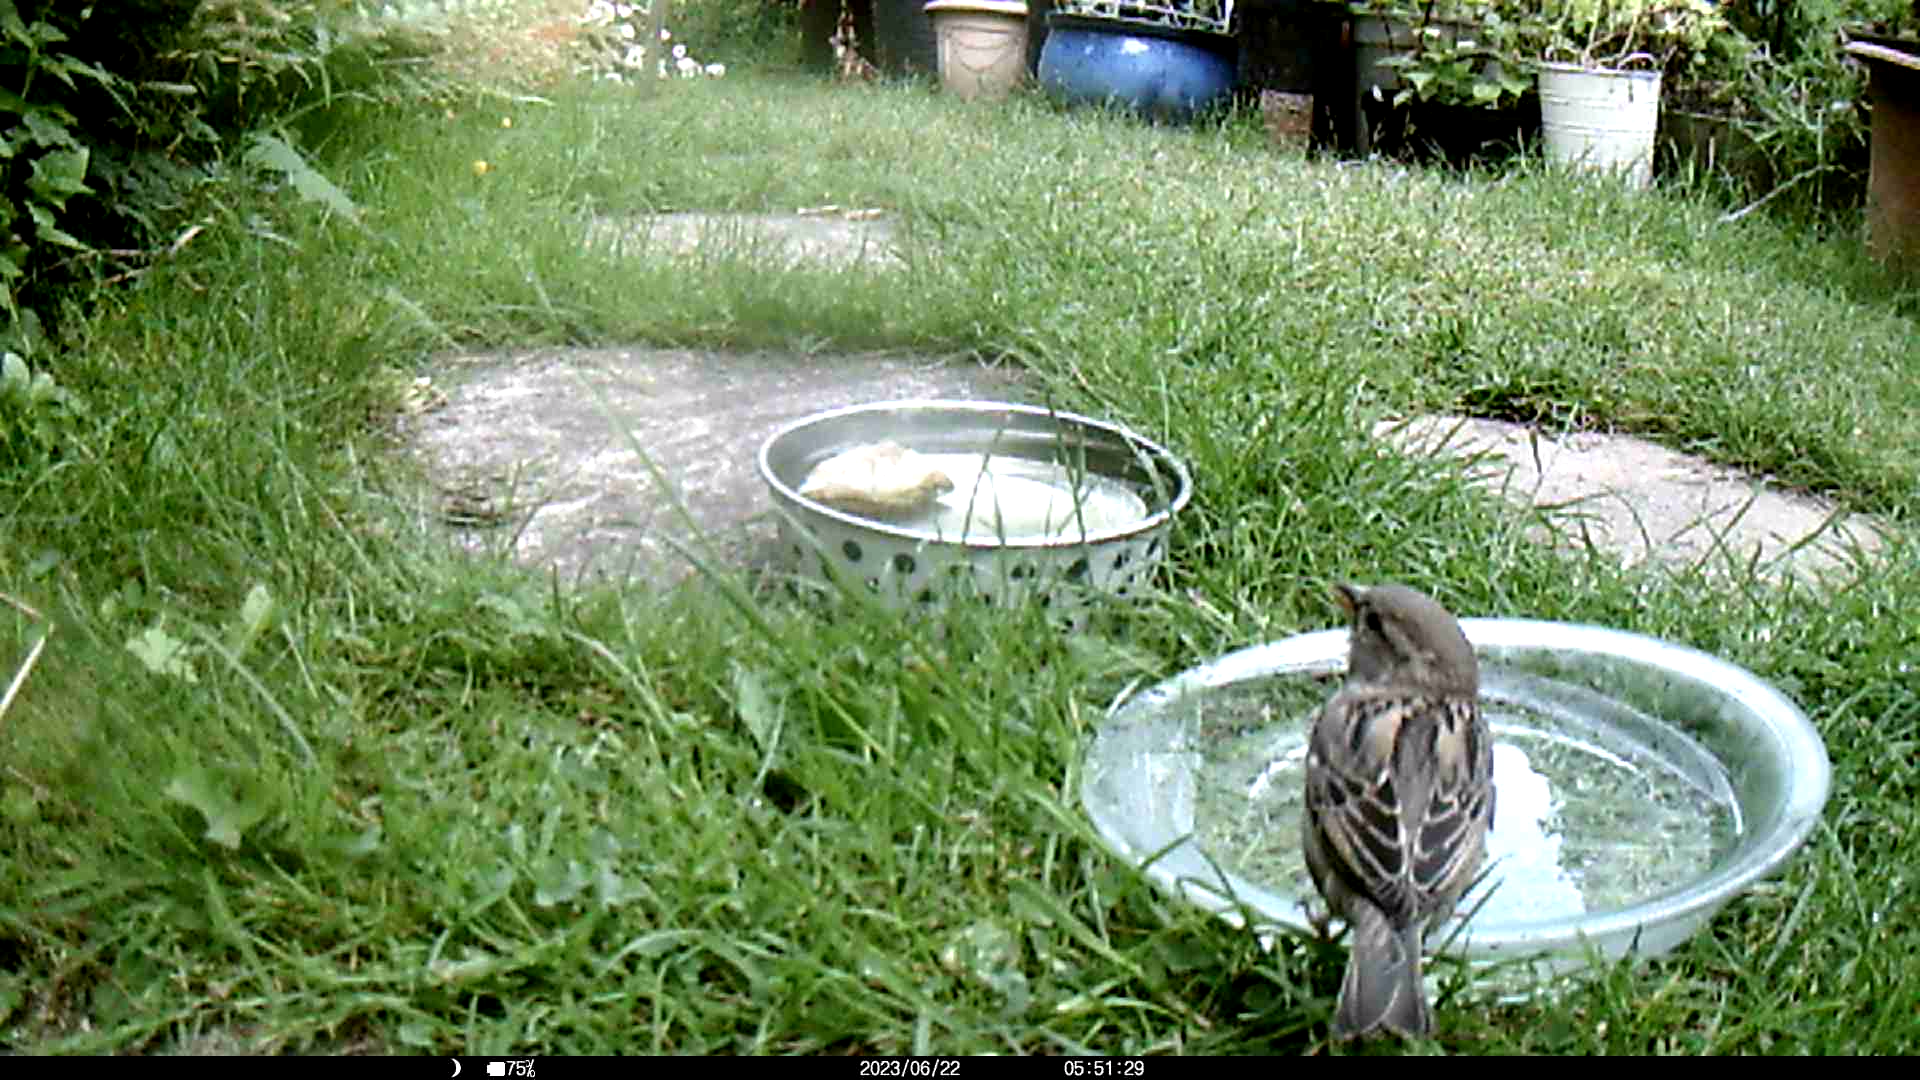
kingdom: Animalia
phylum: Chordata
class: Aves
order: Passeriformes
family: Passeridae
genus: Passer
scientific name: Passer domesticus
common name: House sparrow
